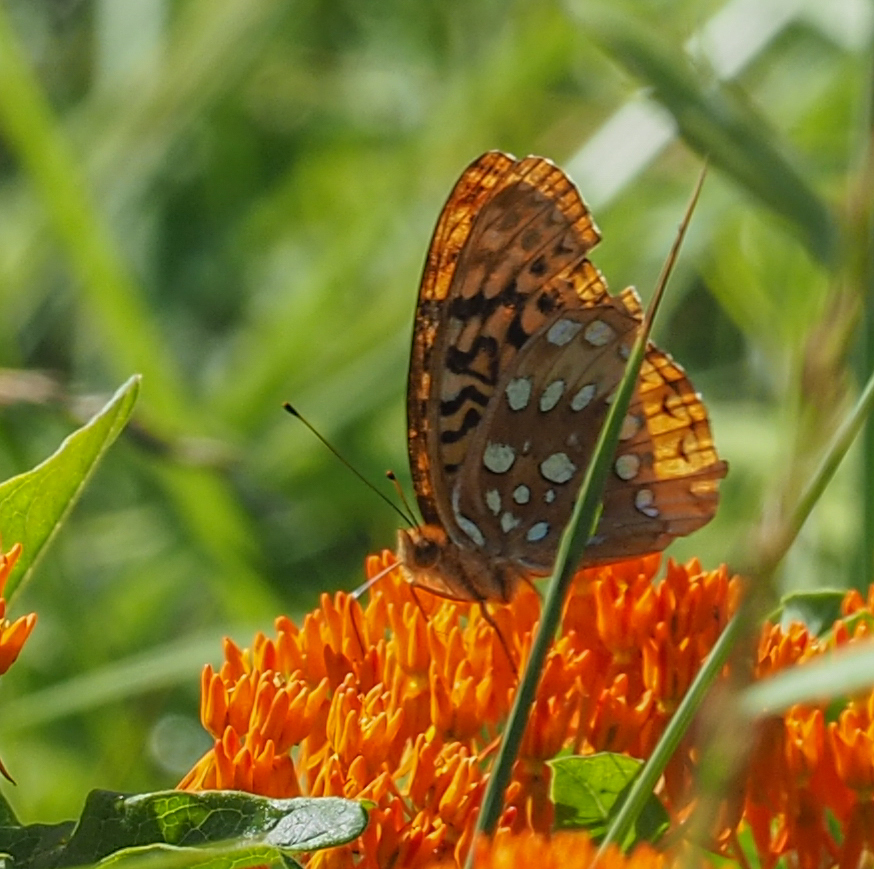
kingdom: Animalia
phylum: Arthropoda
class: Insecta
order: Lepidoptera
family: Nymphalidae
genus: Speyeria
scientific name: Speyeria cybele
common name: Great spangled fritillary
